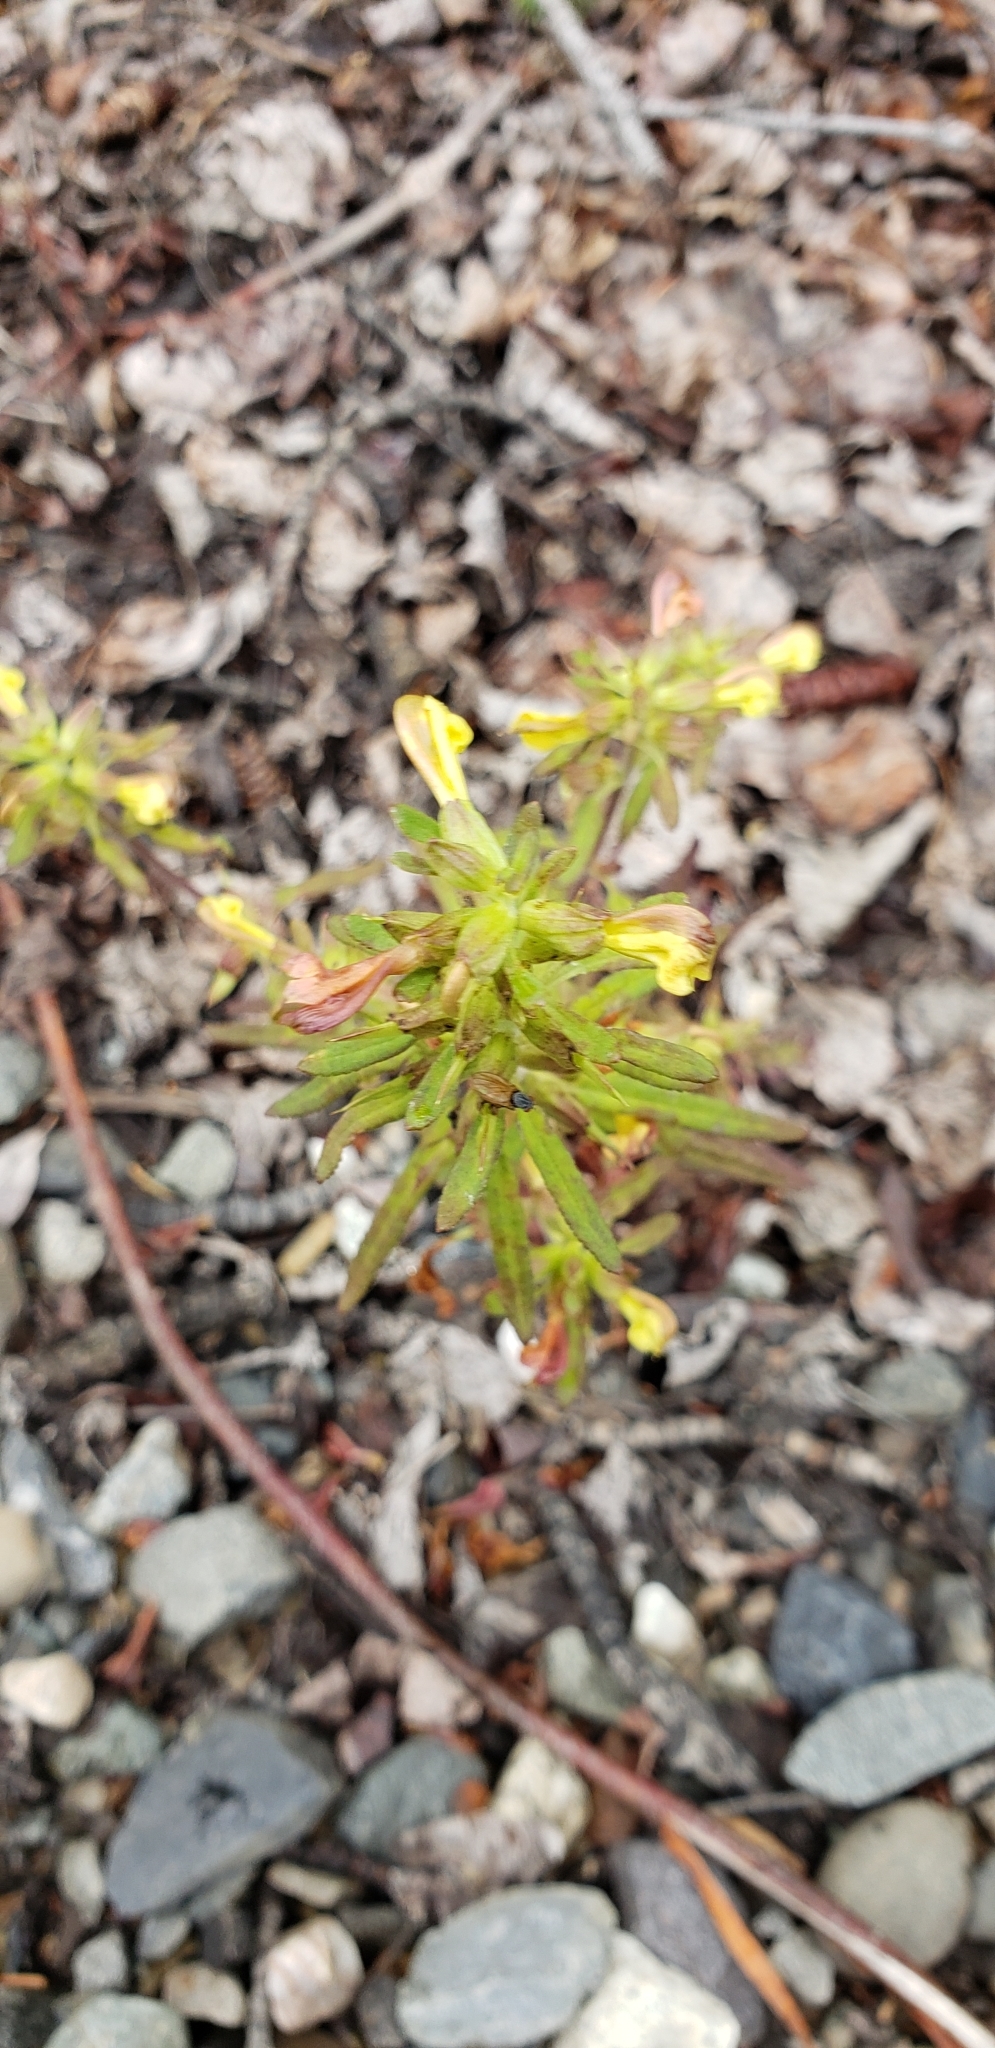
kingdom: Plantae
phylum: Tracheophyta
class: Magnoliopsida
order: Lamiales
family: Orobanchaceae
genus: Pedicularis
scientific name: Pedicularis labradorica
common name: Labrador lousewort
